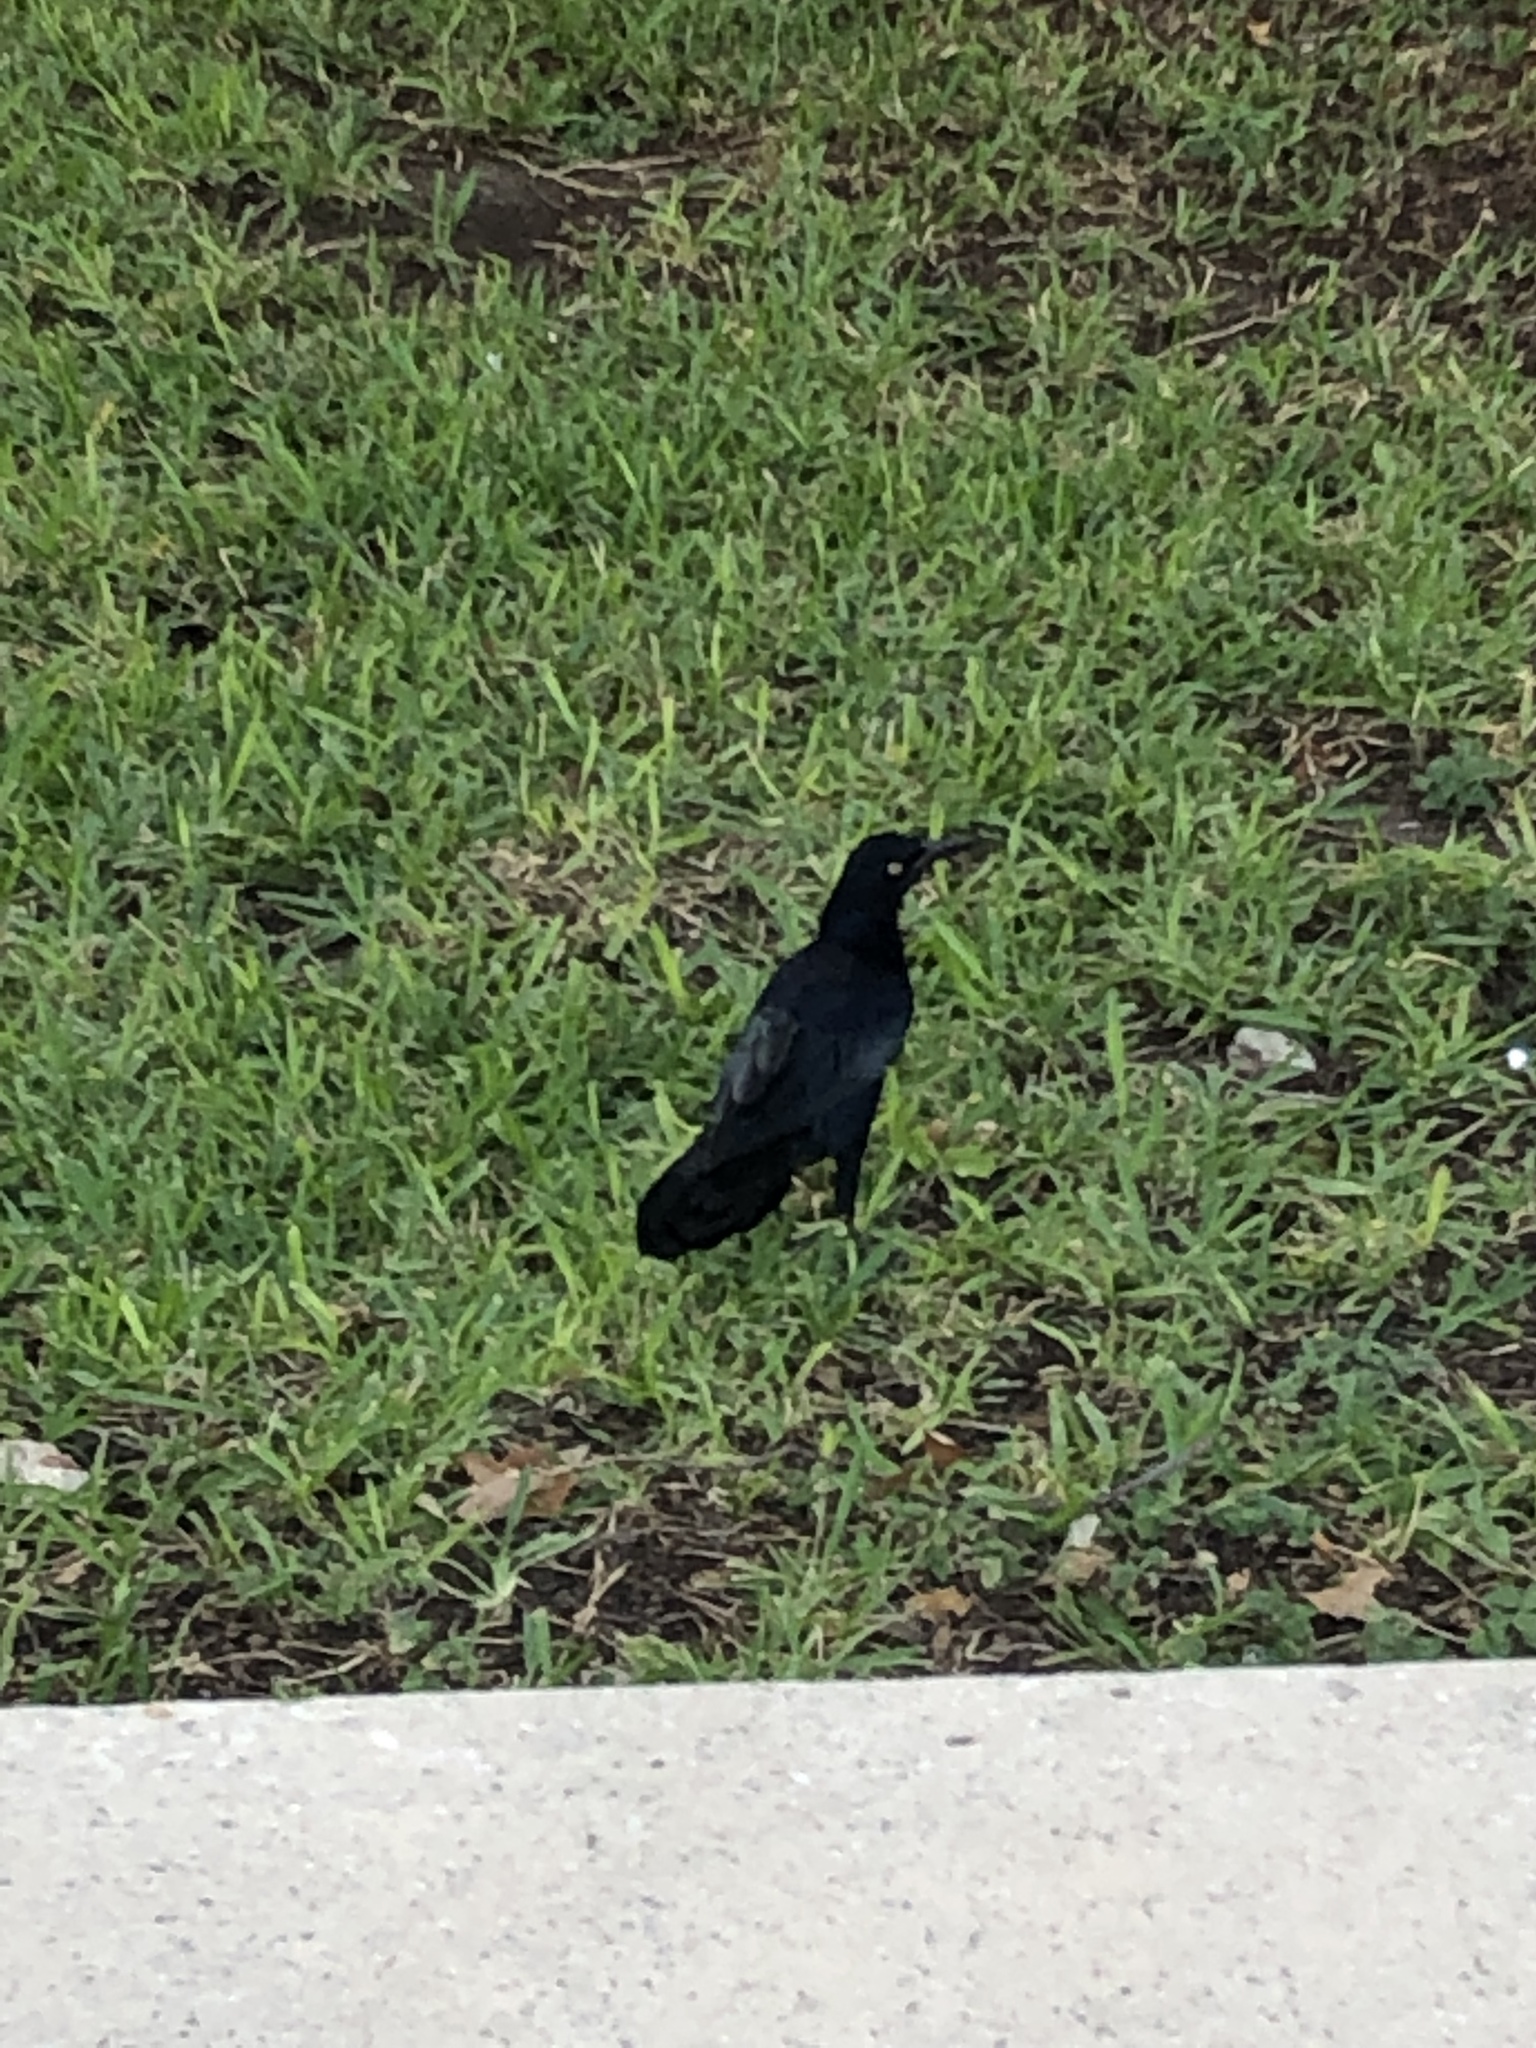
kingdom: Animalia
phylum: Chordata
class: Aves
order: Passeriformes
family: Icteridae
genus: Quiscalus
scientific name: Quiscalus mexicanus
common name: Great-tailed grackle
